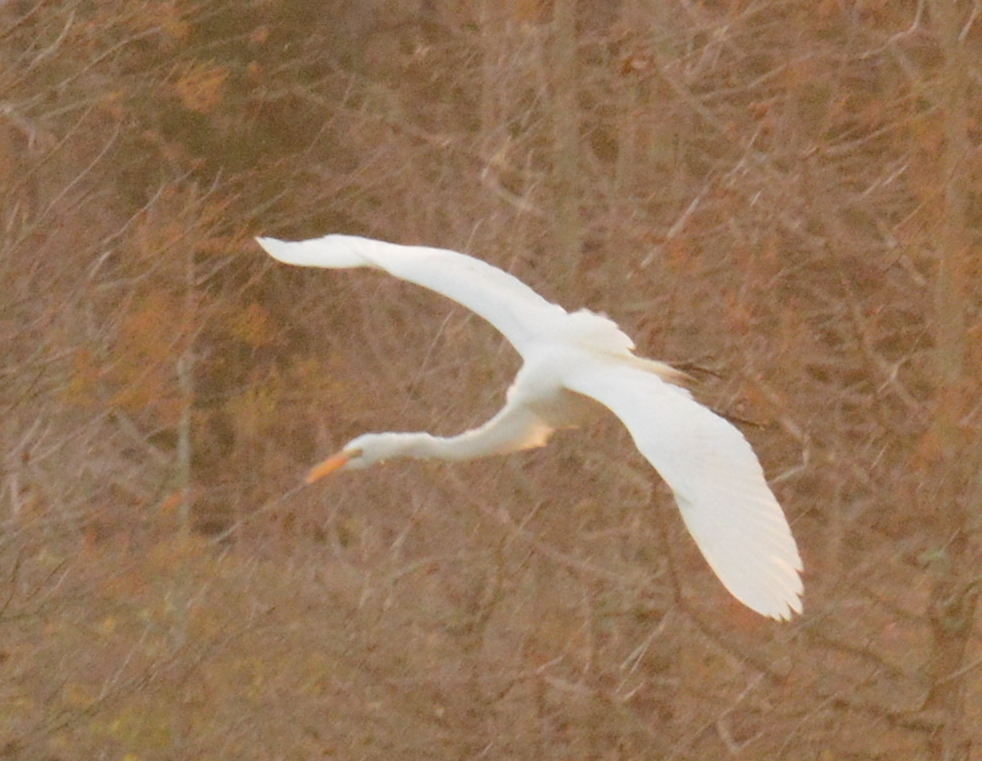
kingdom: Animalia
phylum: Chordata
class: Aves
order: Pelecaniformes
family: Ardeidae
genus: Ardea
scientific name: Ardea alba
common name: Great egret
